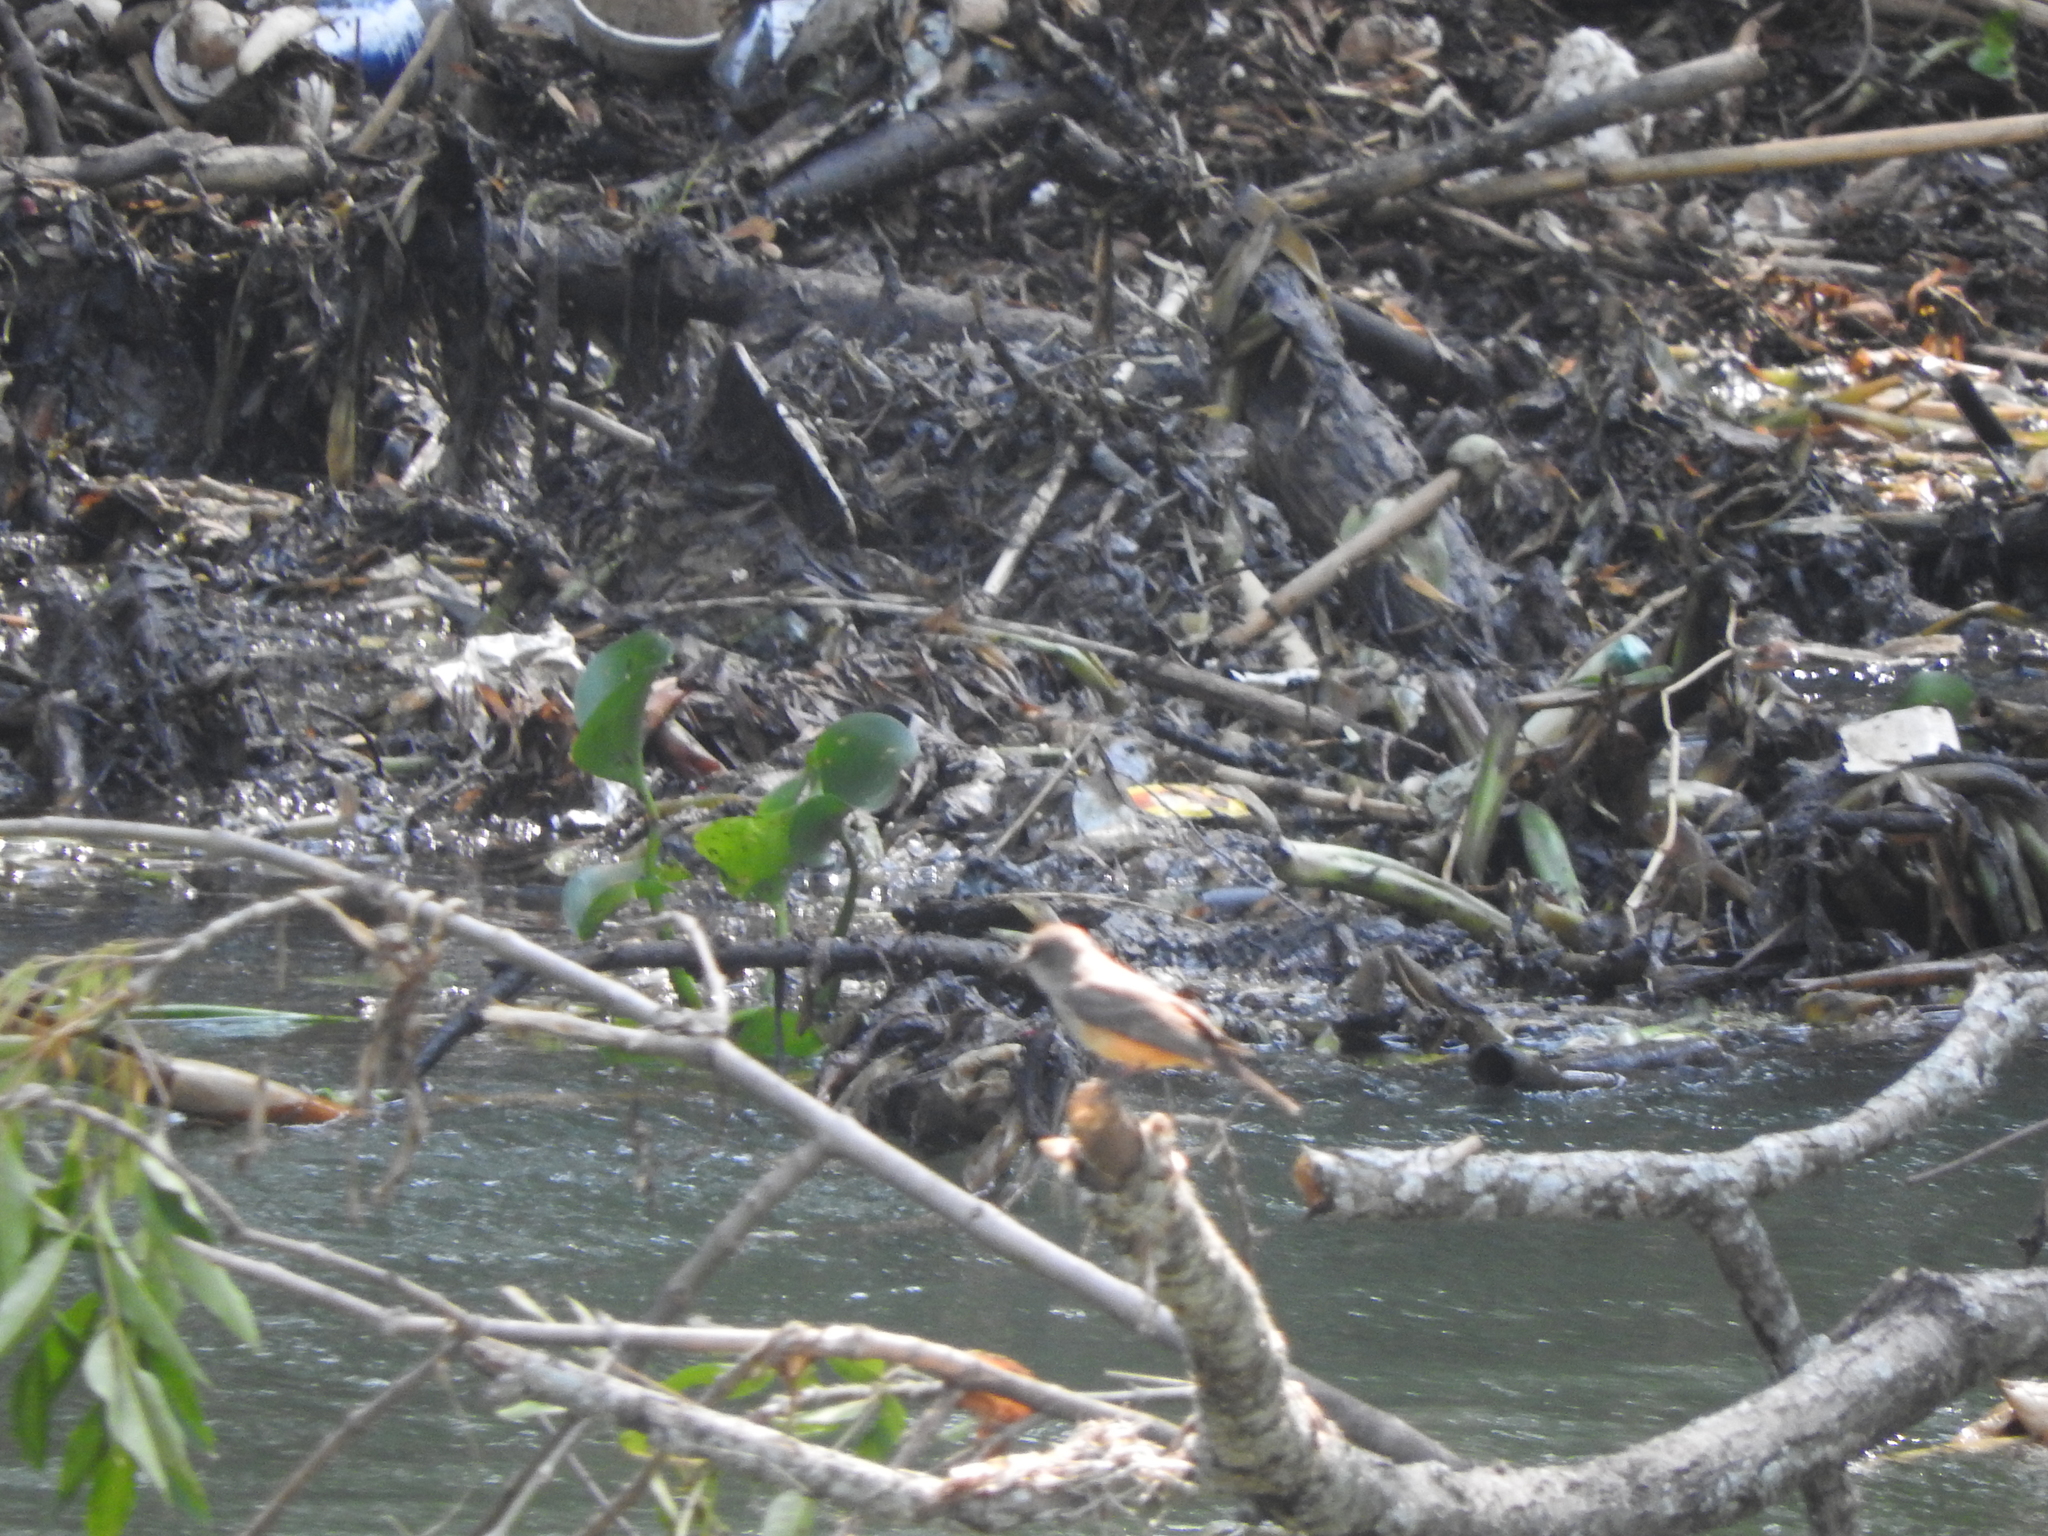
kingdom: Animalia
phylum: Chordata
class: Aves
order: Passeriformes
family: Tyrannidae
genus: Pyrocephalus
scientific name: Pyrocephalus rubinus
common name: Vermilion flycatcher
